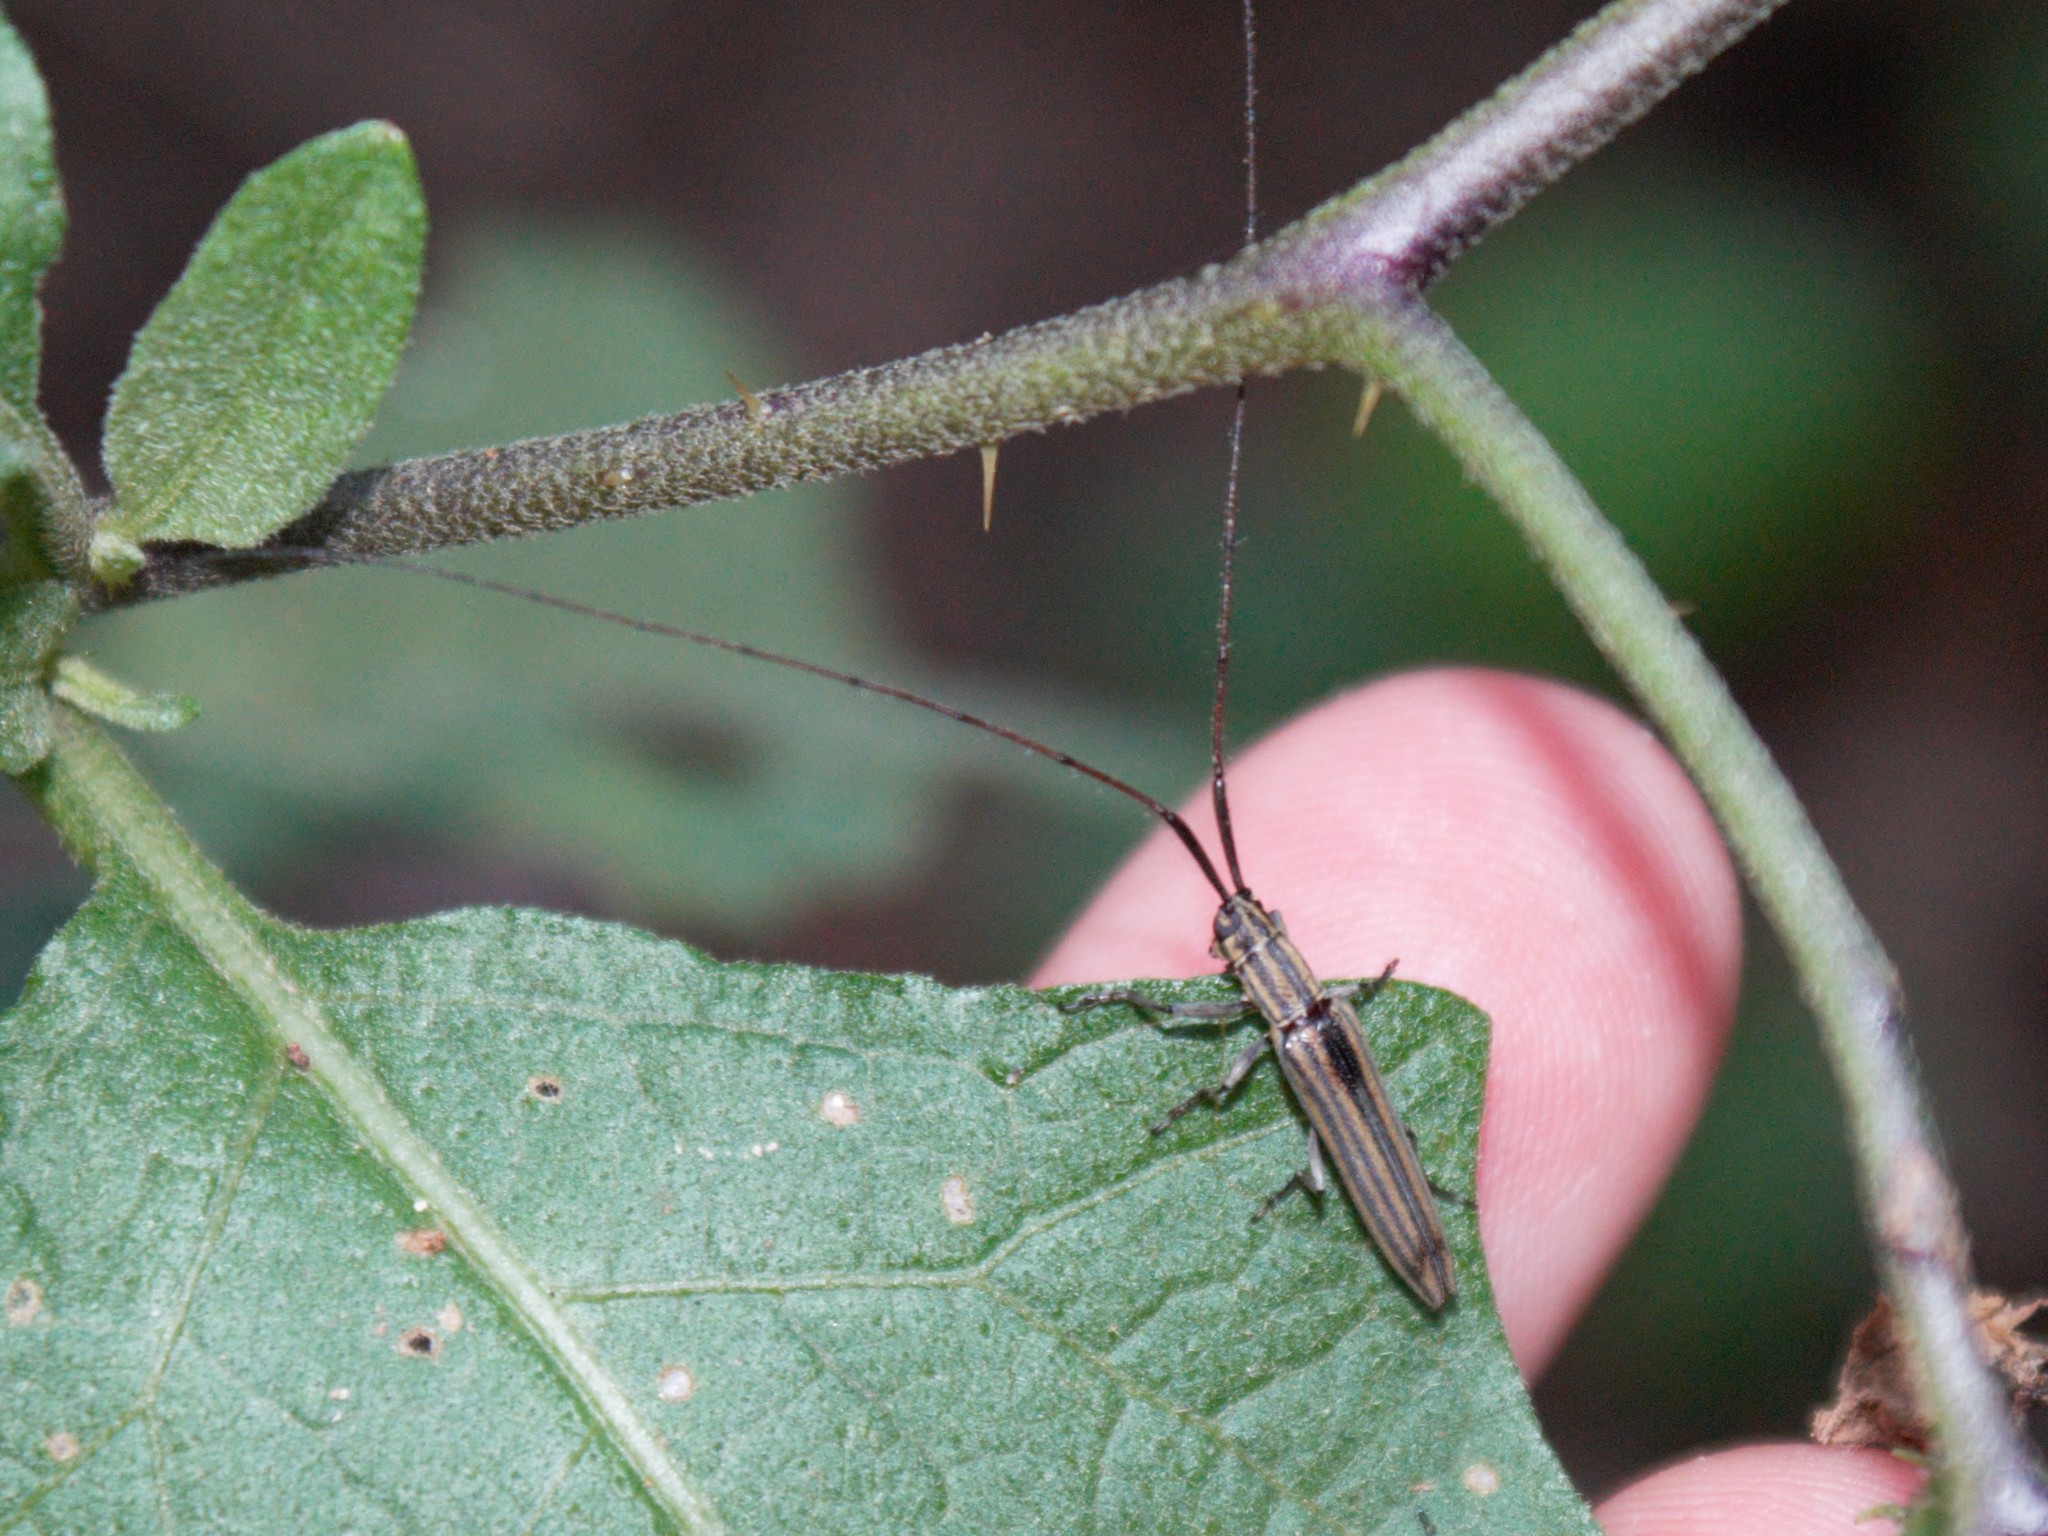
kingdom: Animalia
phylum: Arthropoda
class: Insecta
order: Coleoptera
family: Cerambycidae
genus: Hippopsis
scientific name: Hippopsis
